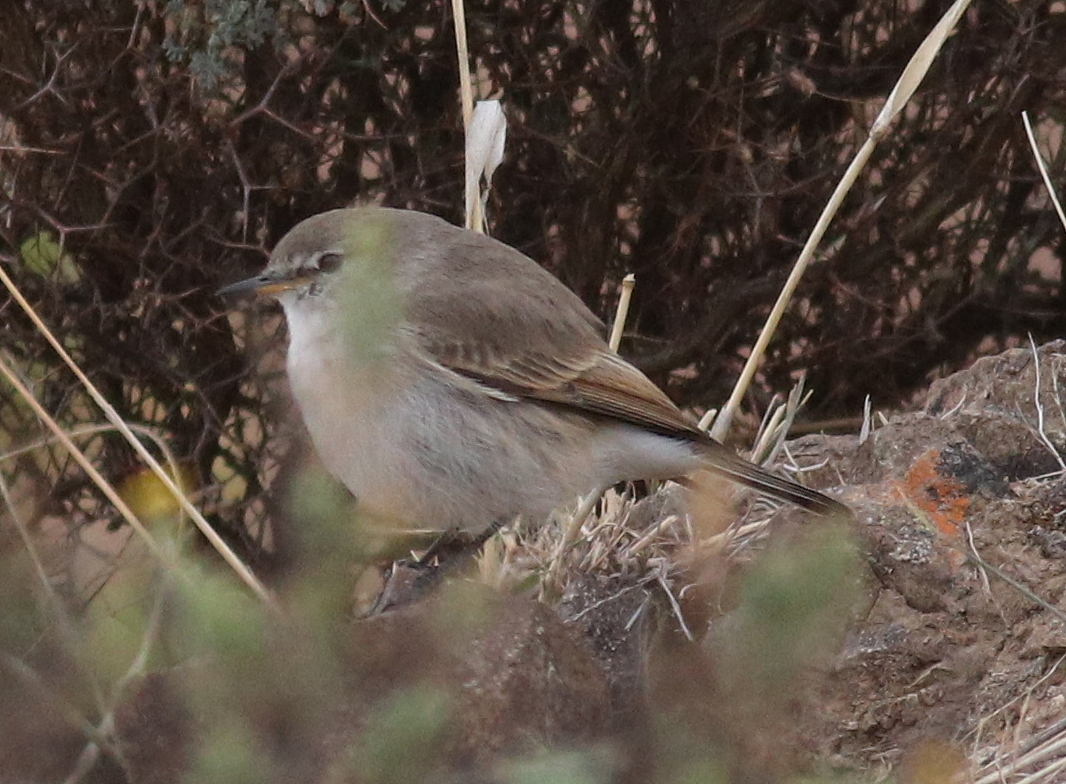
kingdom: Animalia
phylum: Chordata
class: Aves
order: Passeriformes
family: Tyrannidae
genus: Muscisaxicola
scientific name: Muscisaxicola maculirostris
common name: Spot-billed ground tyrant
